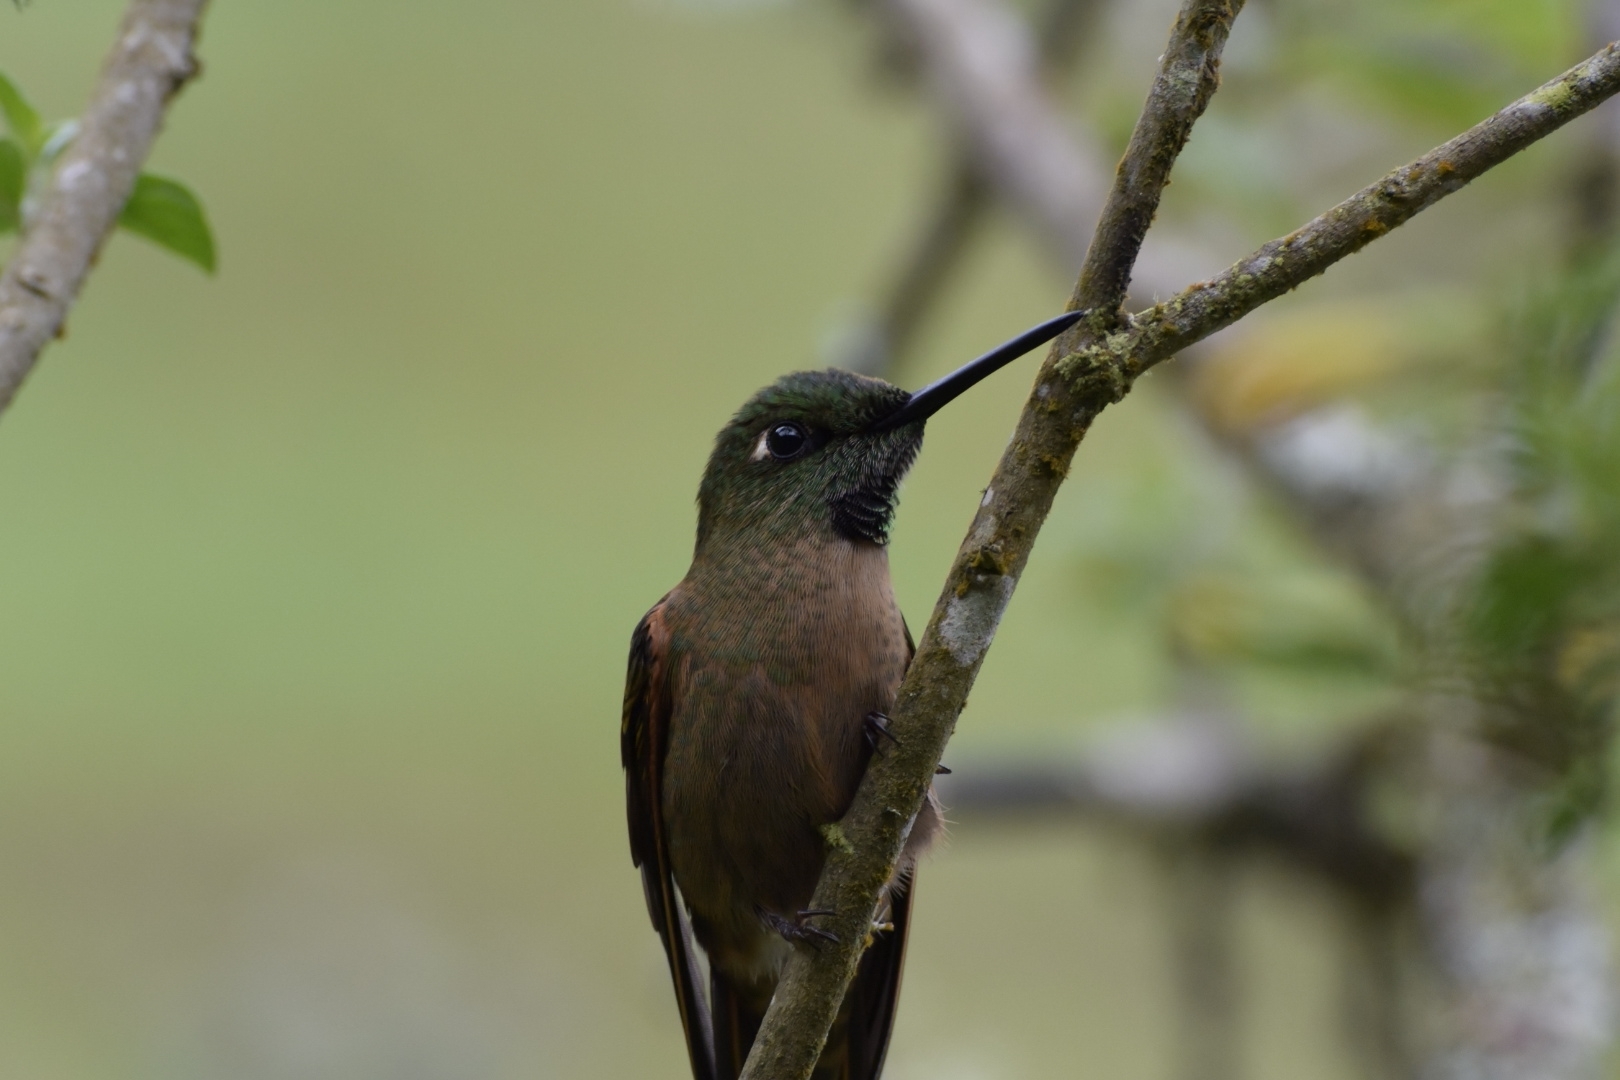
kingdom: Animalia
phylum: Chordata
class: Aves
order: Apodiformes
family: Trochilidae
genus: Heliodoxa
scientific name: Heliodoxa rubinoides
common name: Fawn-breasted brilliant
